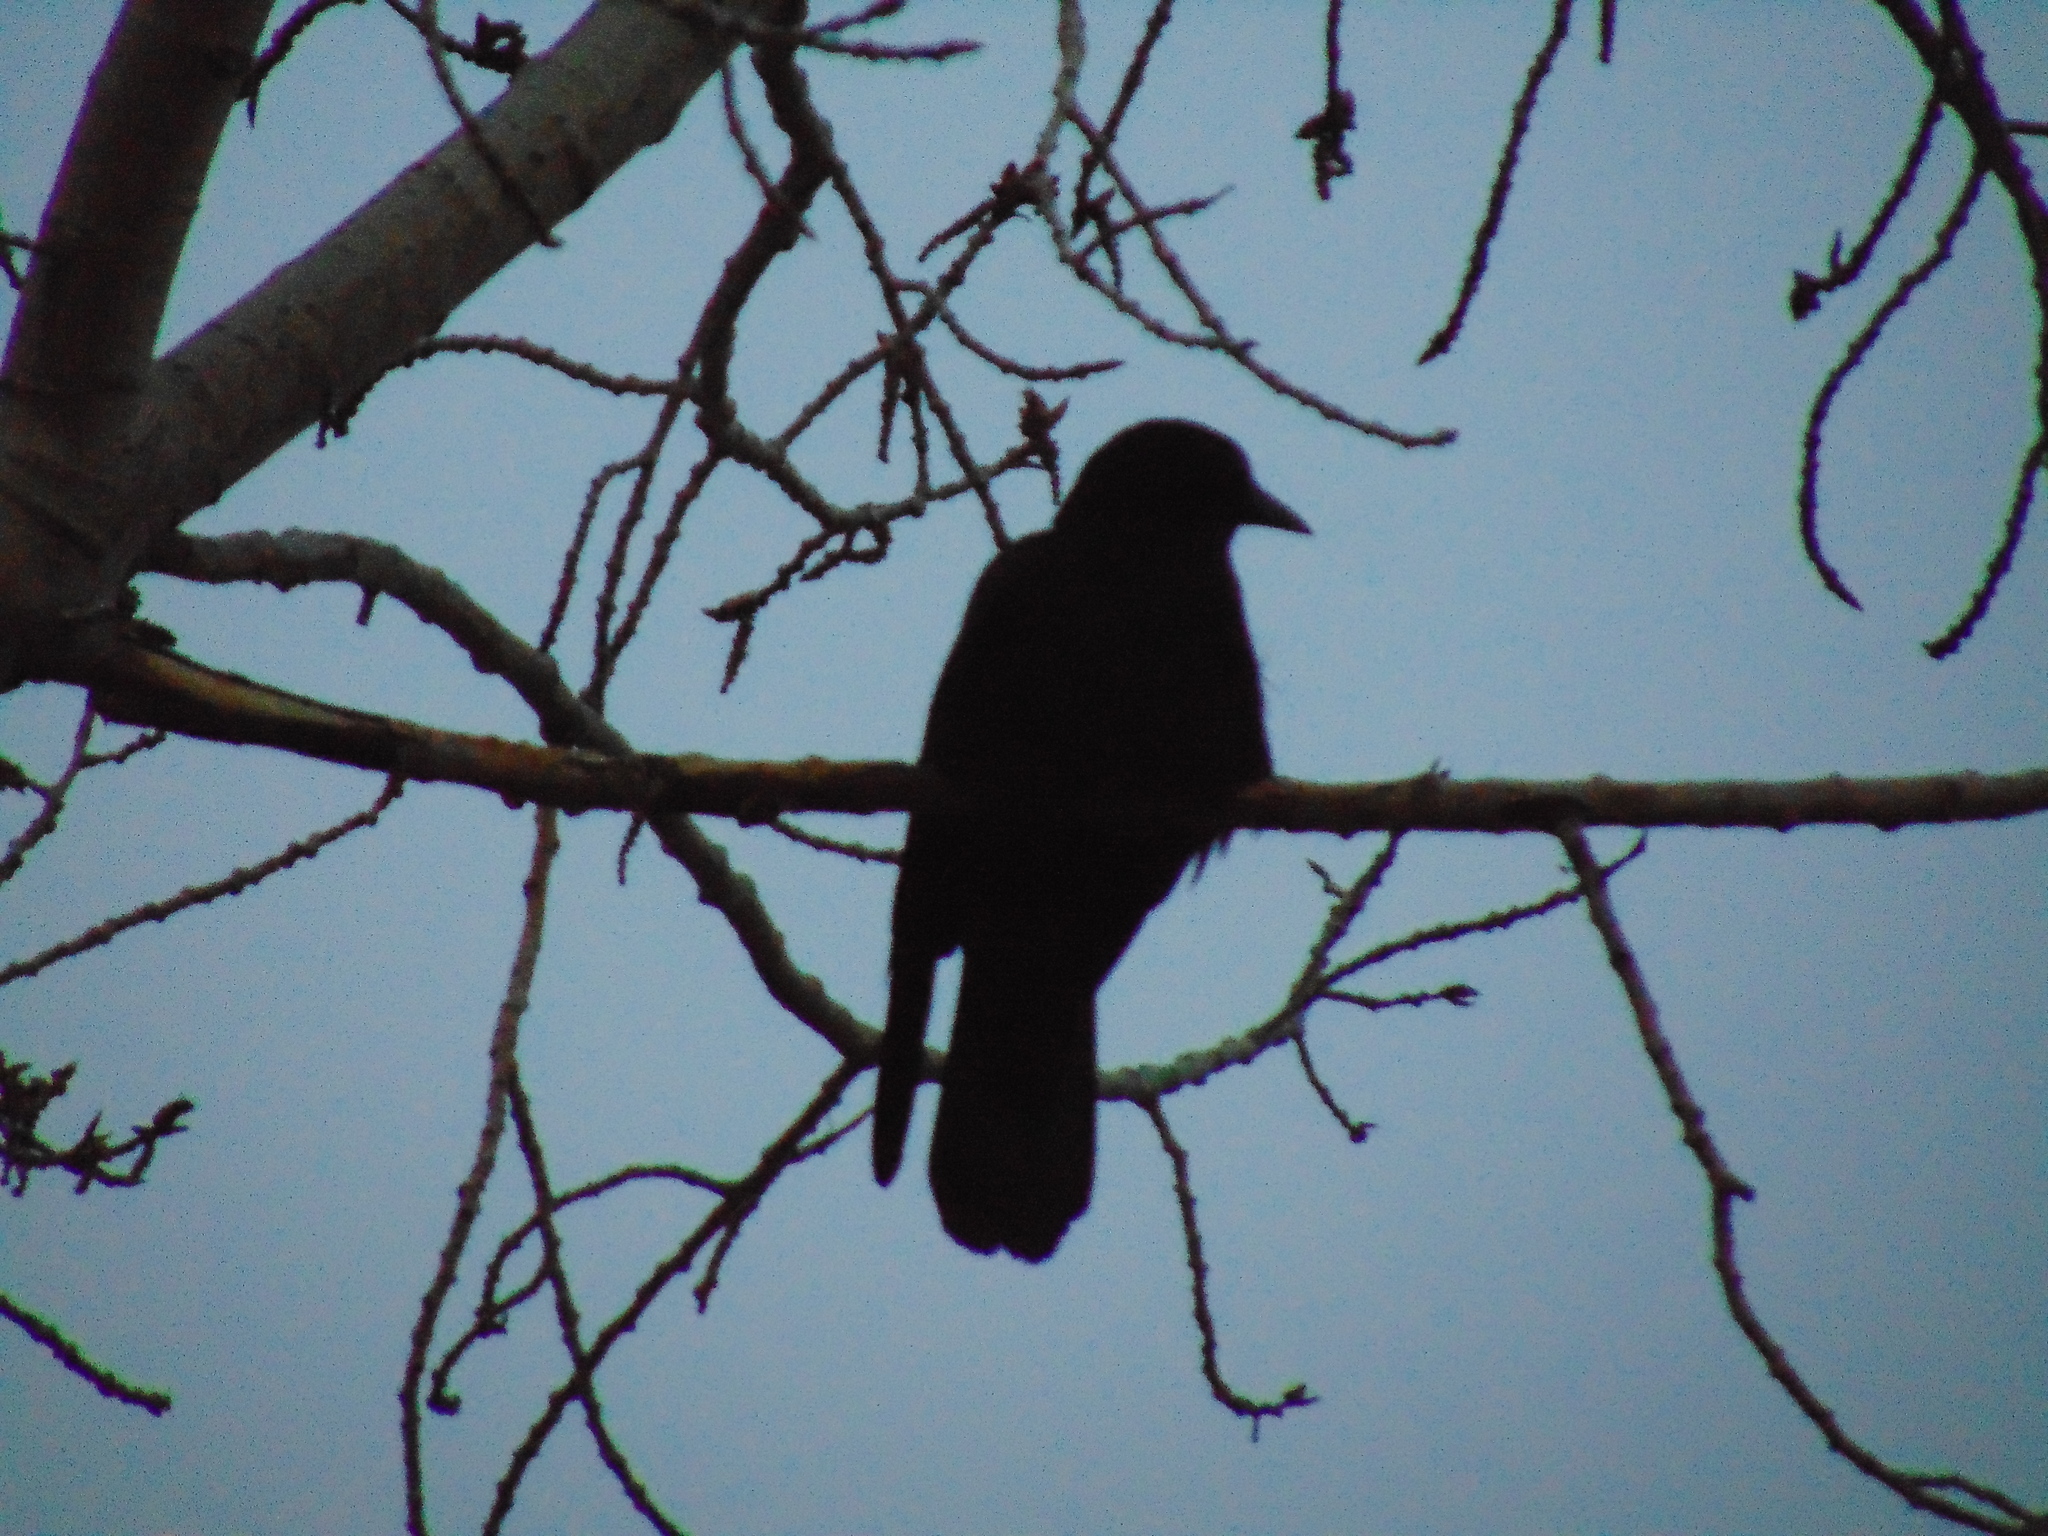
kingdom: Animalia
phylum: Chordata
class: Aves
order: Passeriformes
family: Corvidae
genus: Corvus
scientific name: Corvus brachyrhynchos
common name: American crow
